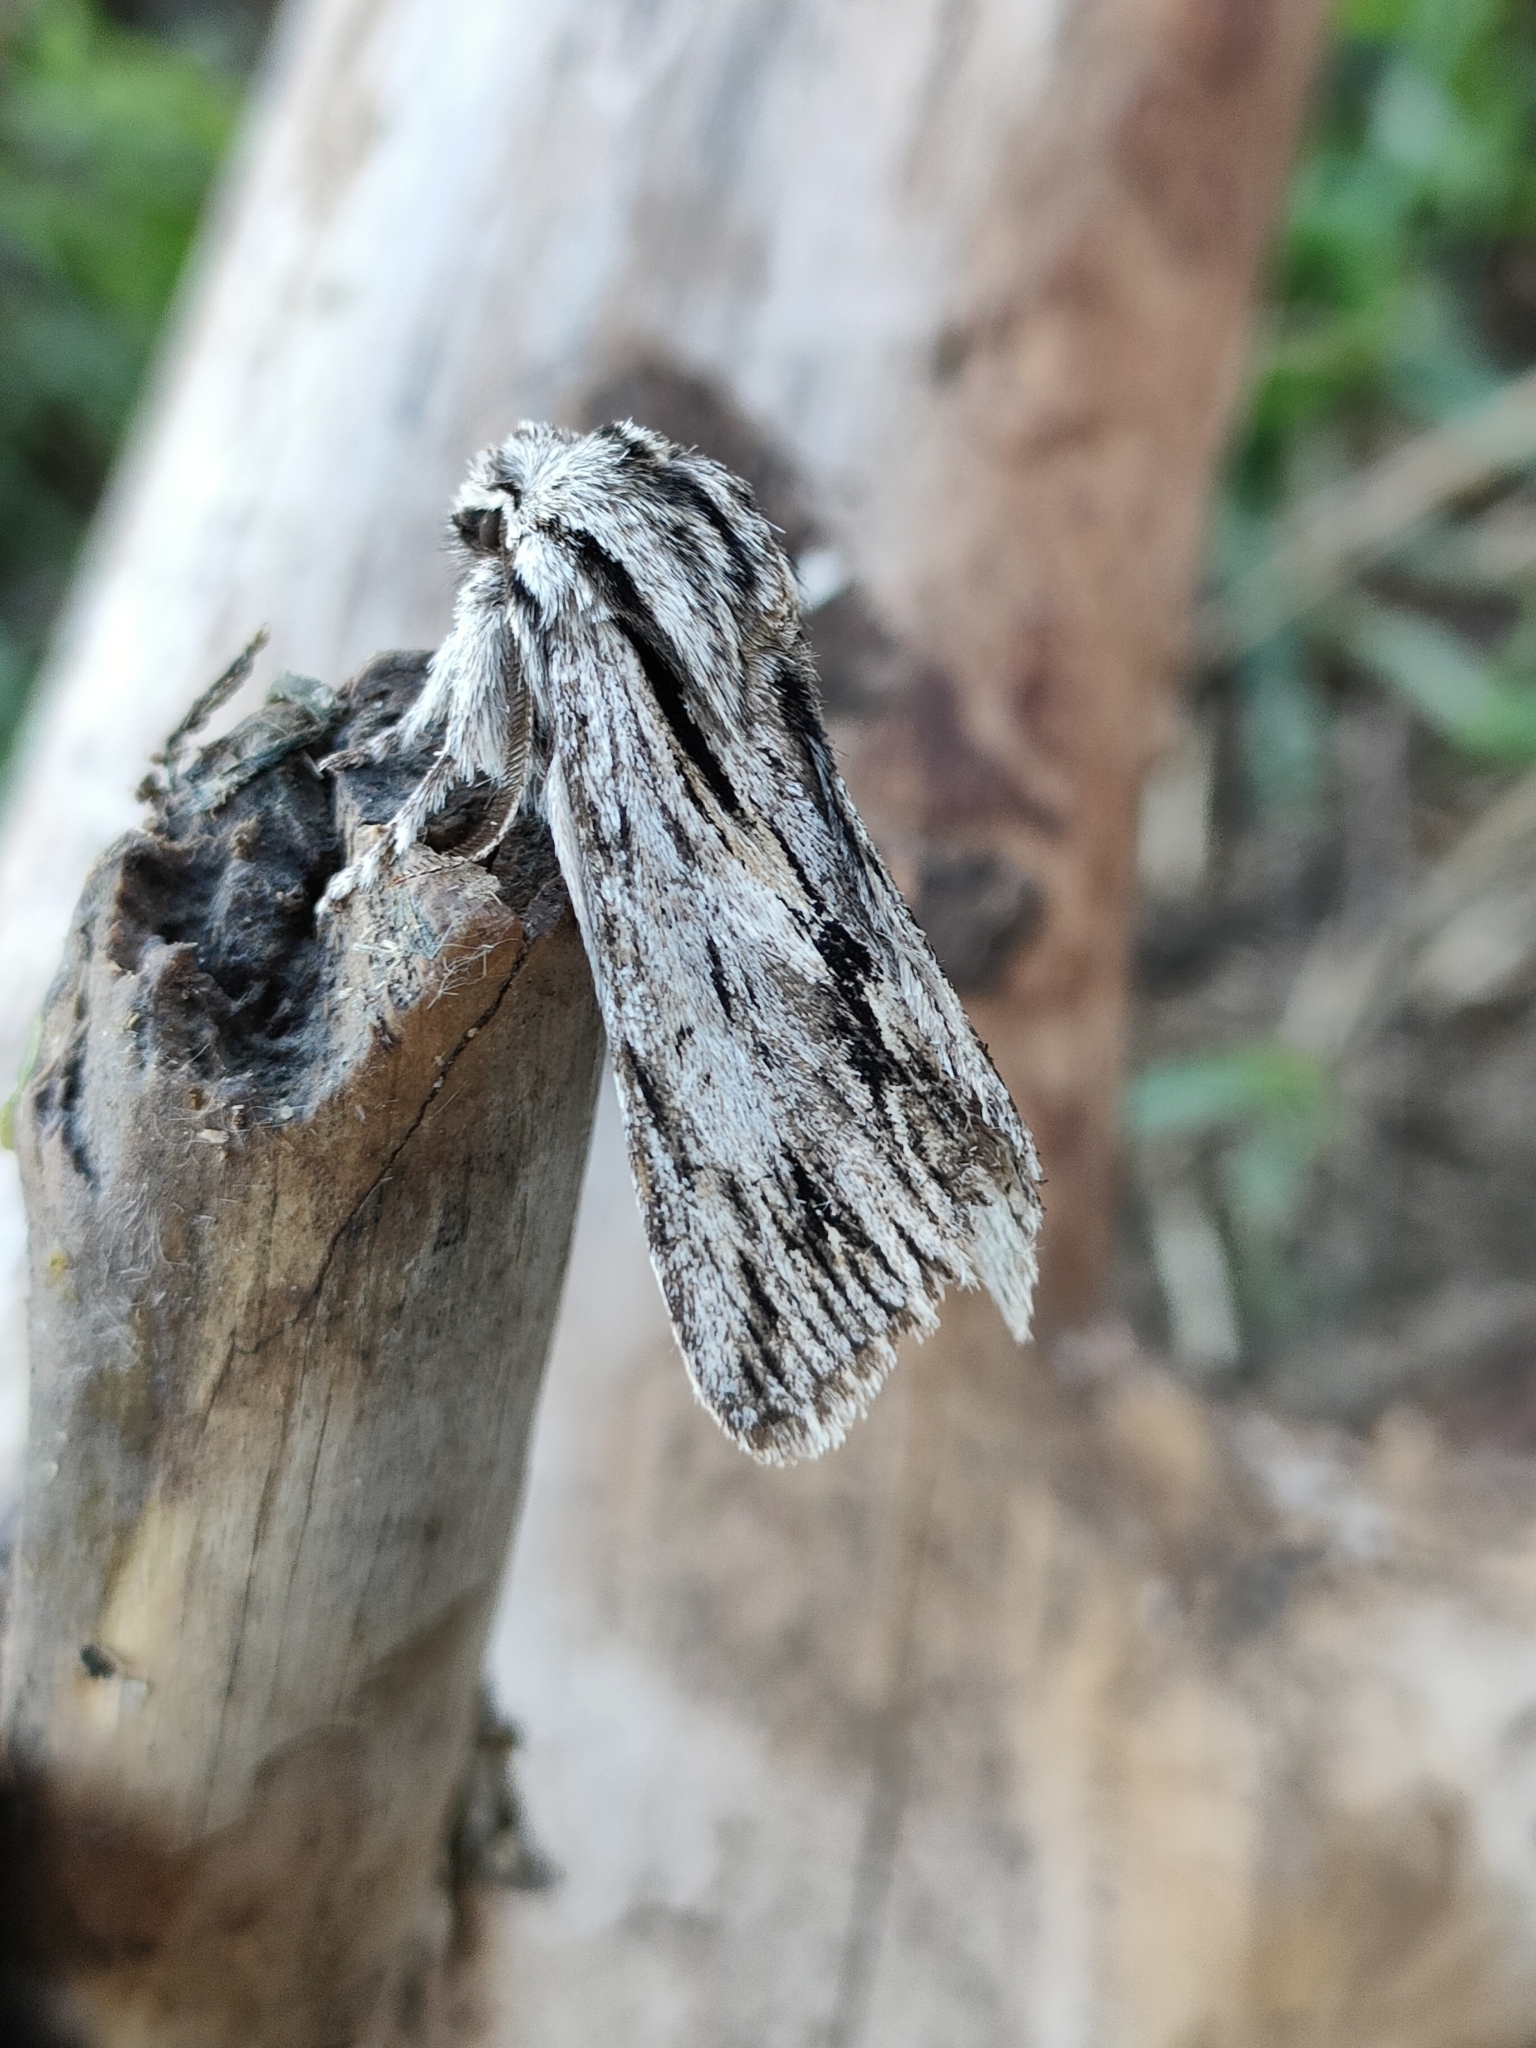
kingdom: Animalia
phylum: Arthropoda
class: Insecta
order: Lepidoptera
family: Noctuidae
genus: Asteroscopus
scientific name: Asteroscopus sphinx
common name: The sprawler
